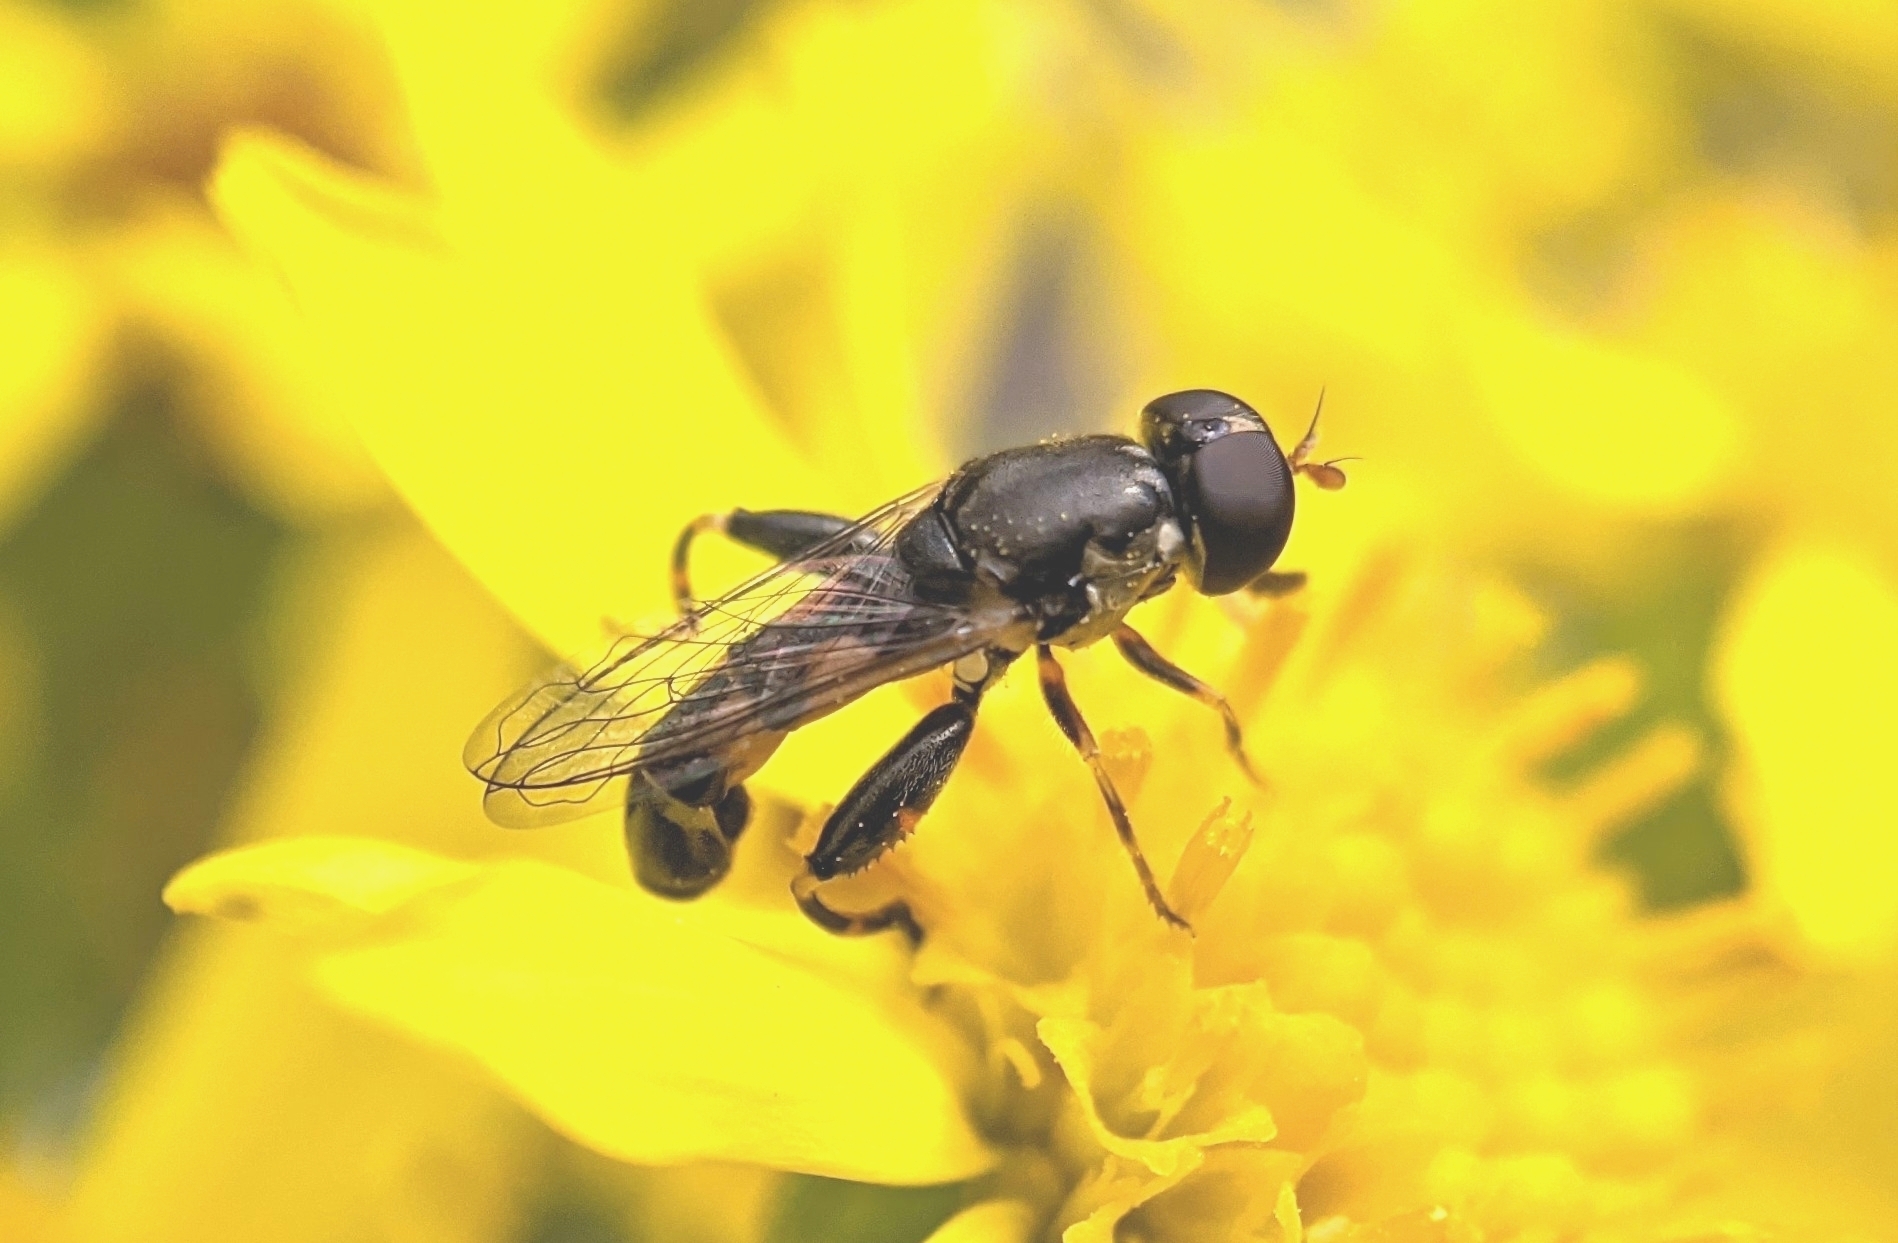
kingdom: Animalia
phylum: Arthropoda
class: Insecta
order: Diptera
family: Syrphidae
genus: Syritta
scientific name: Syritta pipiens
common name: Hover fly
